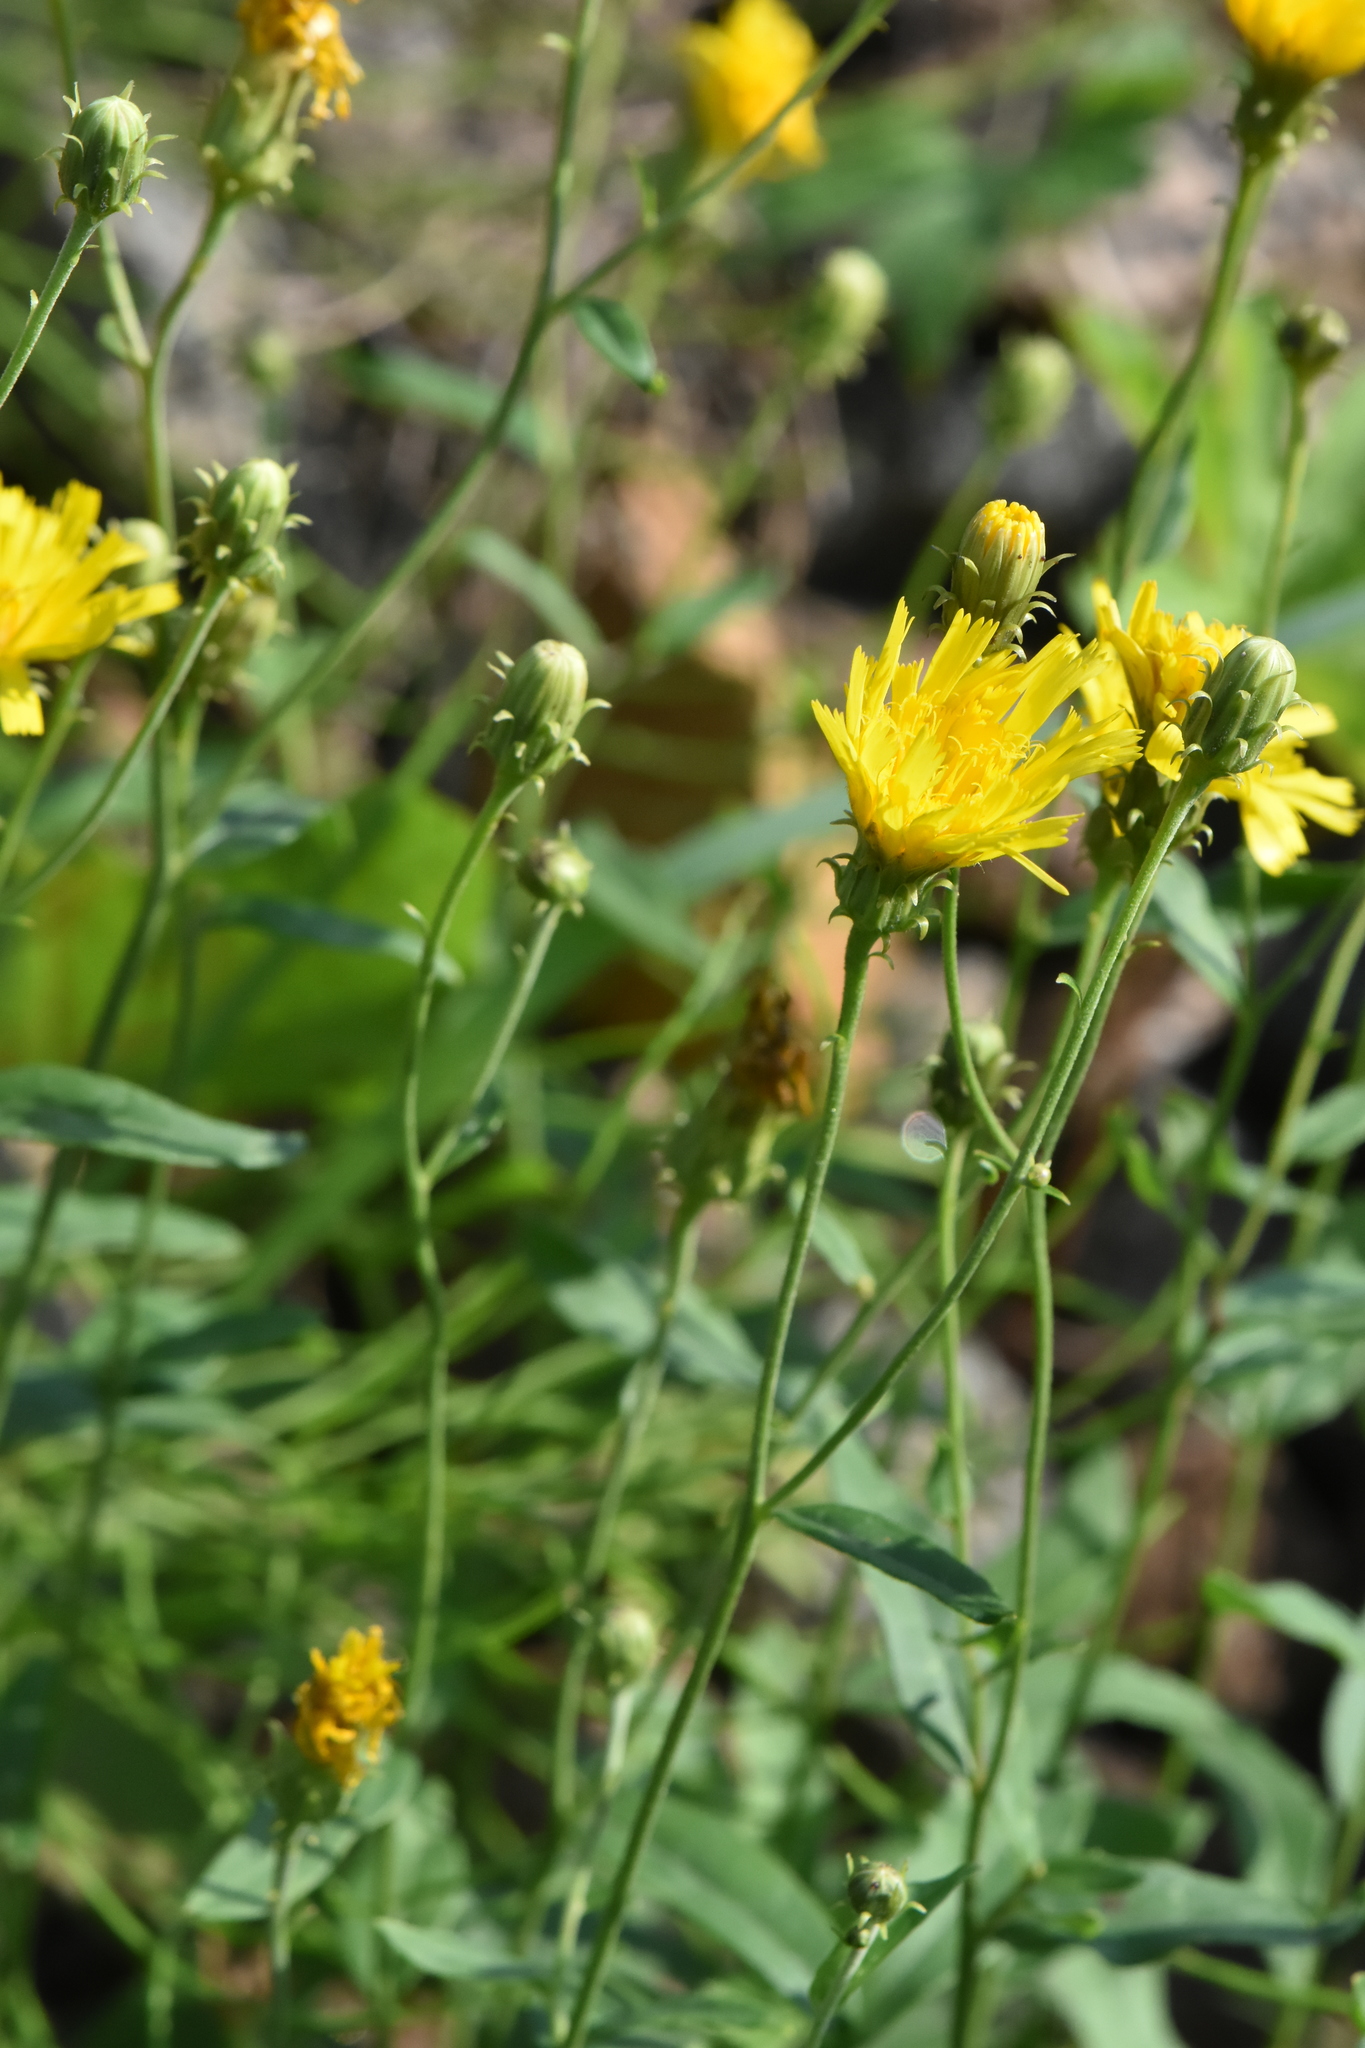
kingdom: Plantae
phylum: Tracheophyta
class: Magnoliopsida
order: Asterales
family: Asteraceae
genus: Hieracium
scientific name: Hieracium umbellatum
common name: Northern hawkweed
